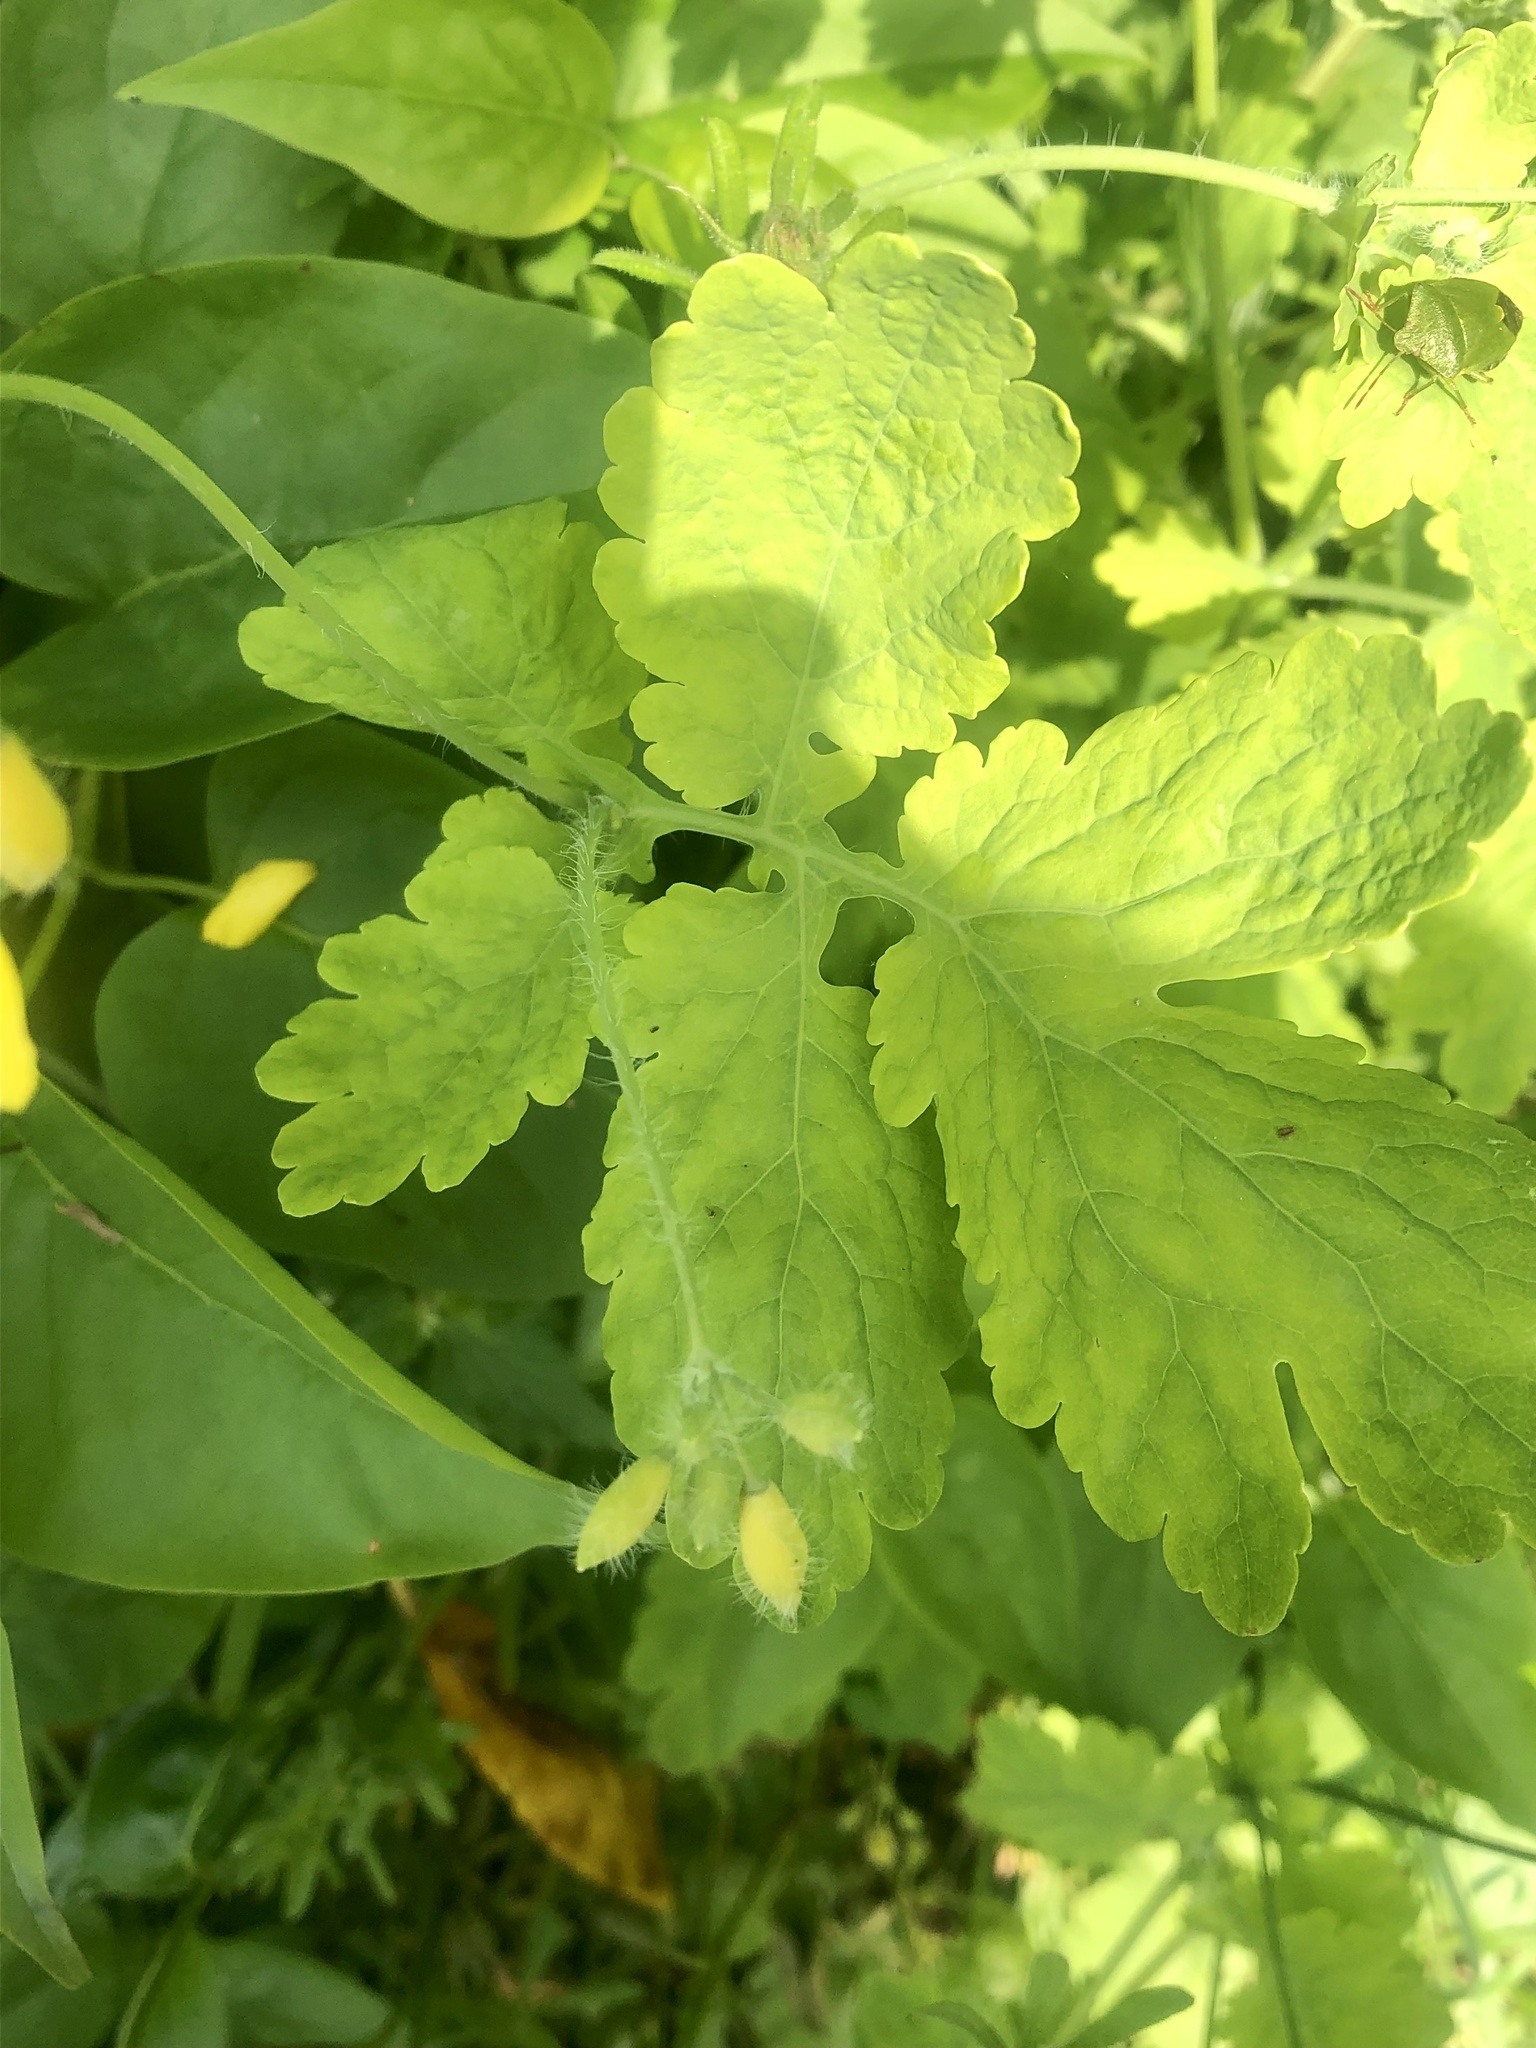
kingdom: Plantae
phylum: Tracheophyta
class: Magnoliopsida
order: Ranunculales
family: Papaveraceae
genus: Chelidonium
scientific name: Chelidonium majus
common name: Greater celandine
